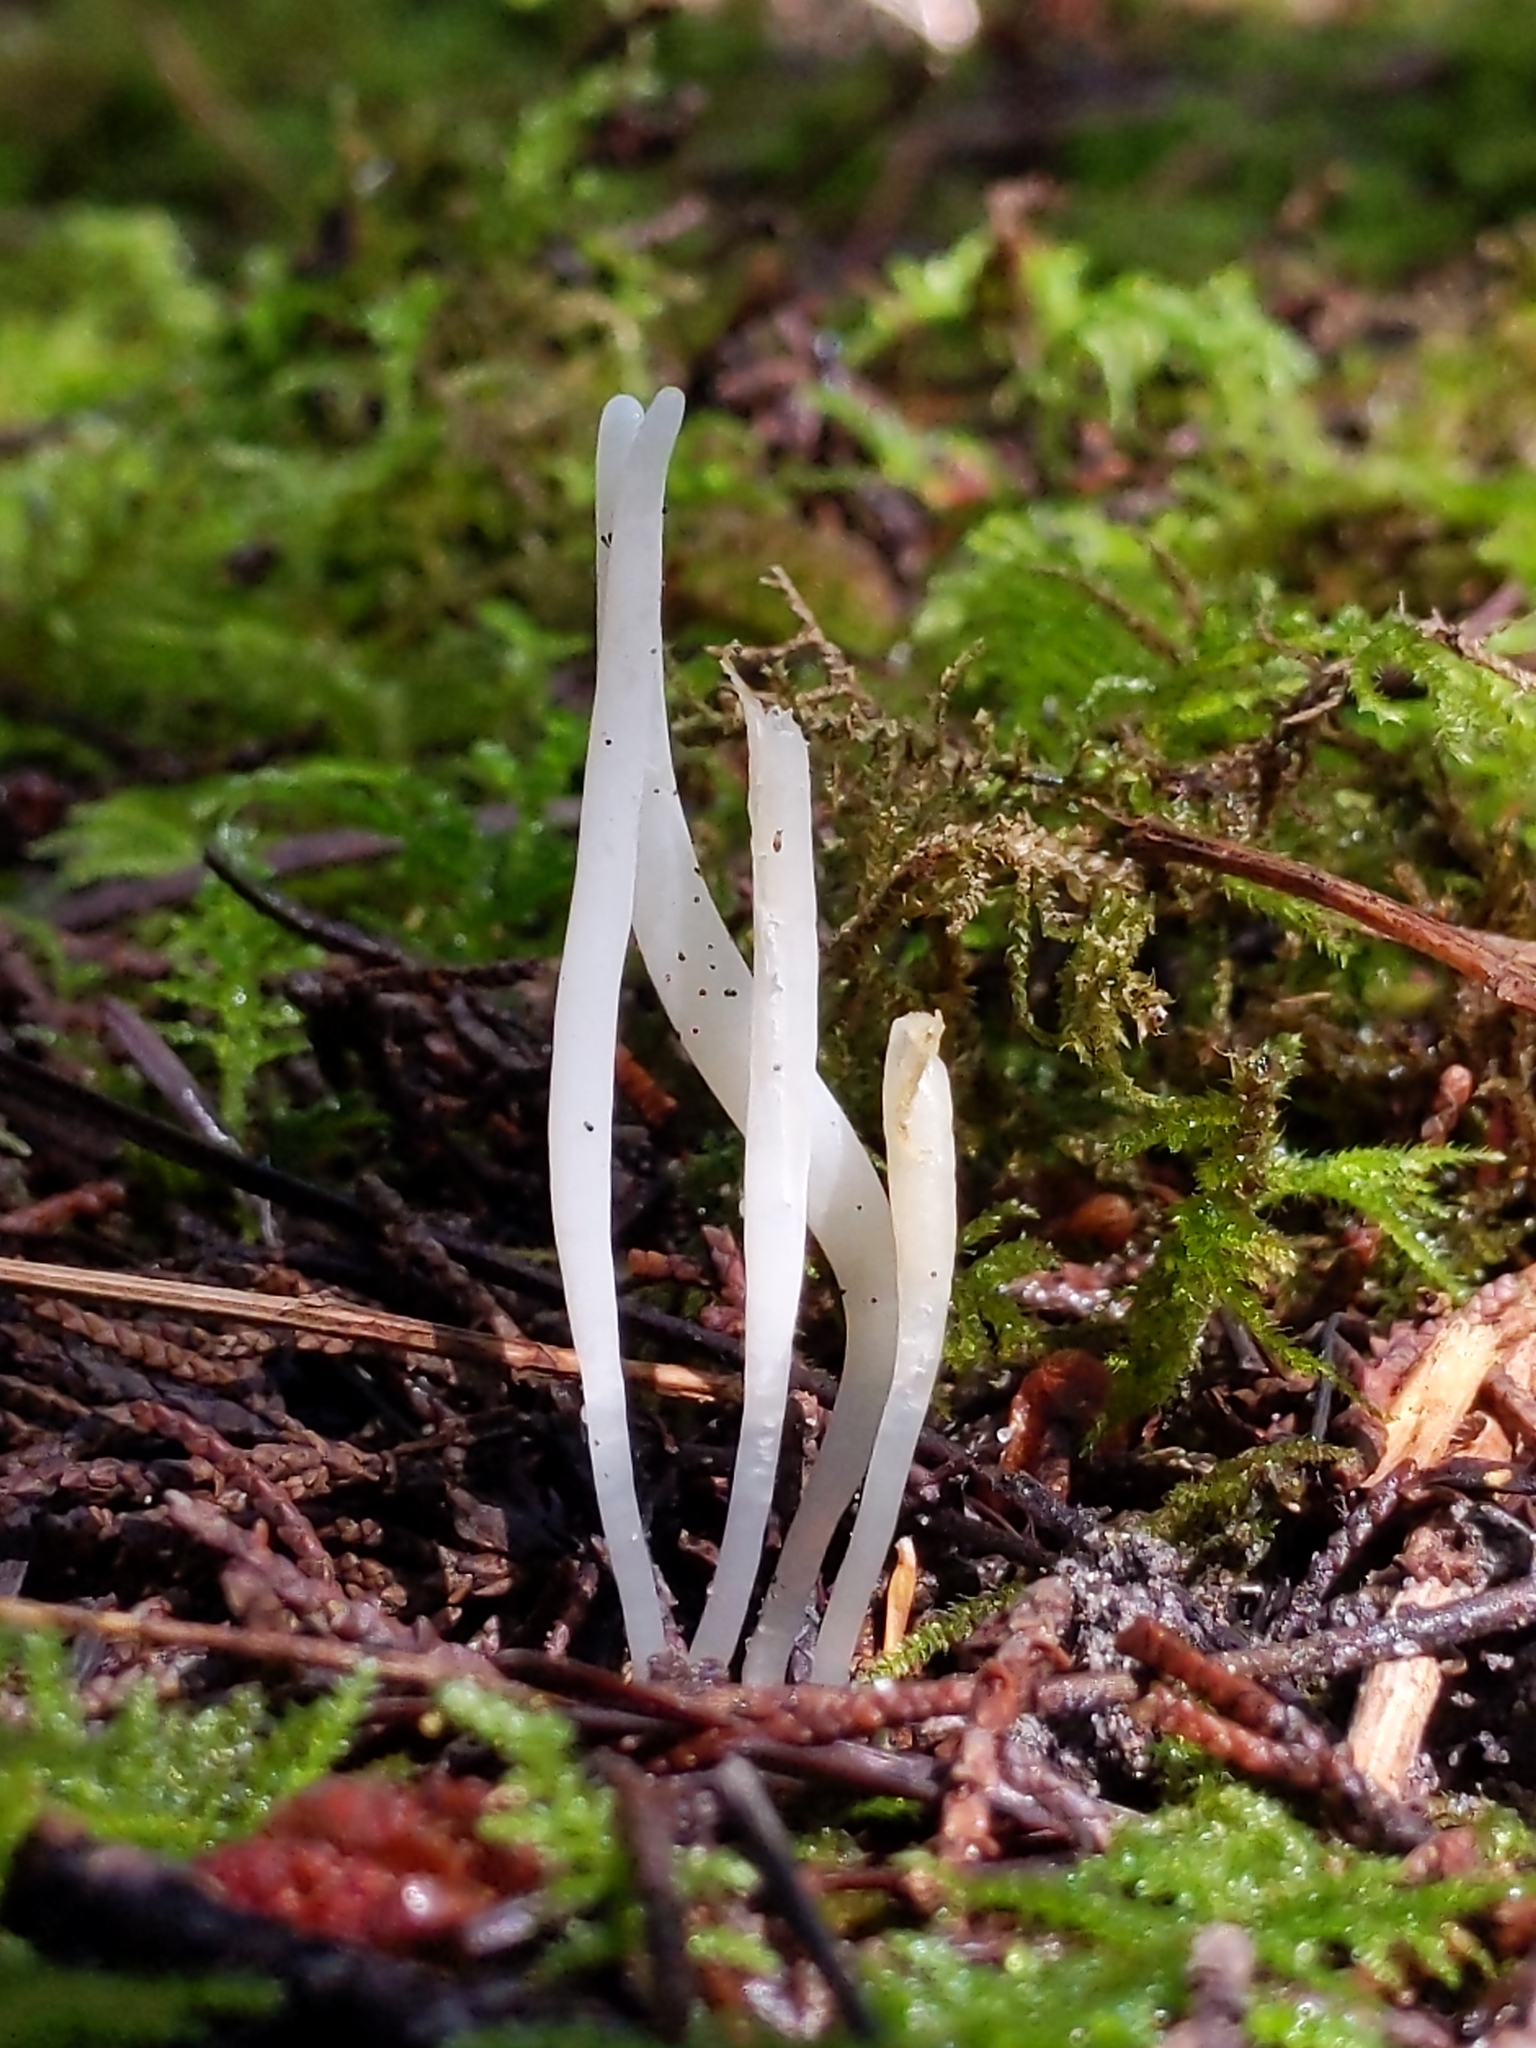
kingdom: Fungi
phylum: Basidiomycota
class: Agaricomycetes
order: Agaricales
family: Clavariaceae
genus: Clavaria
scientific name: Clavaria falcata
